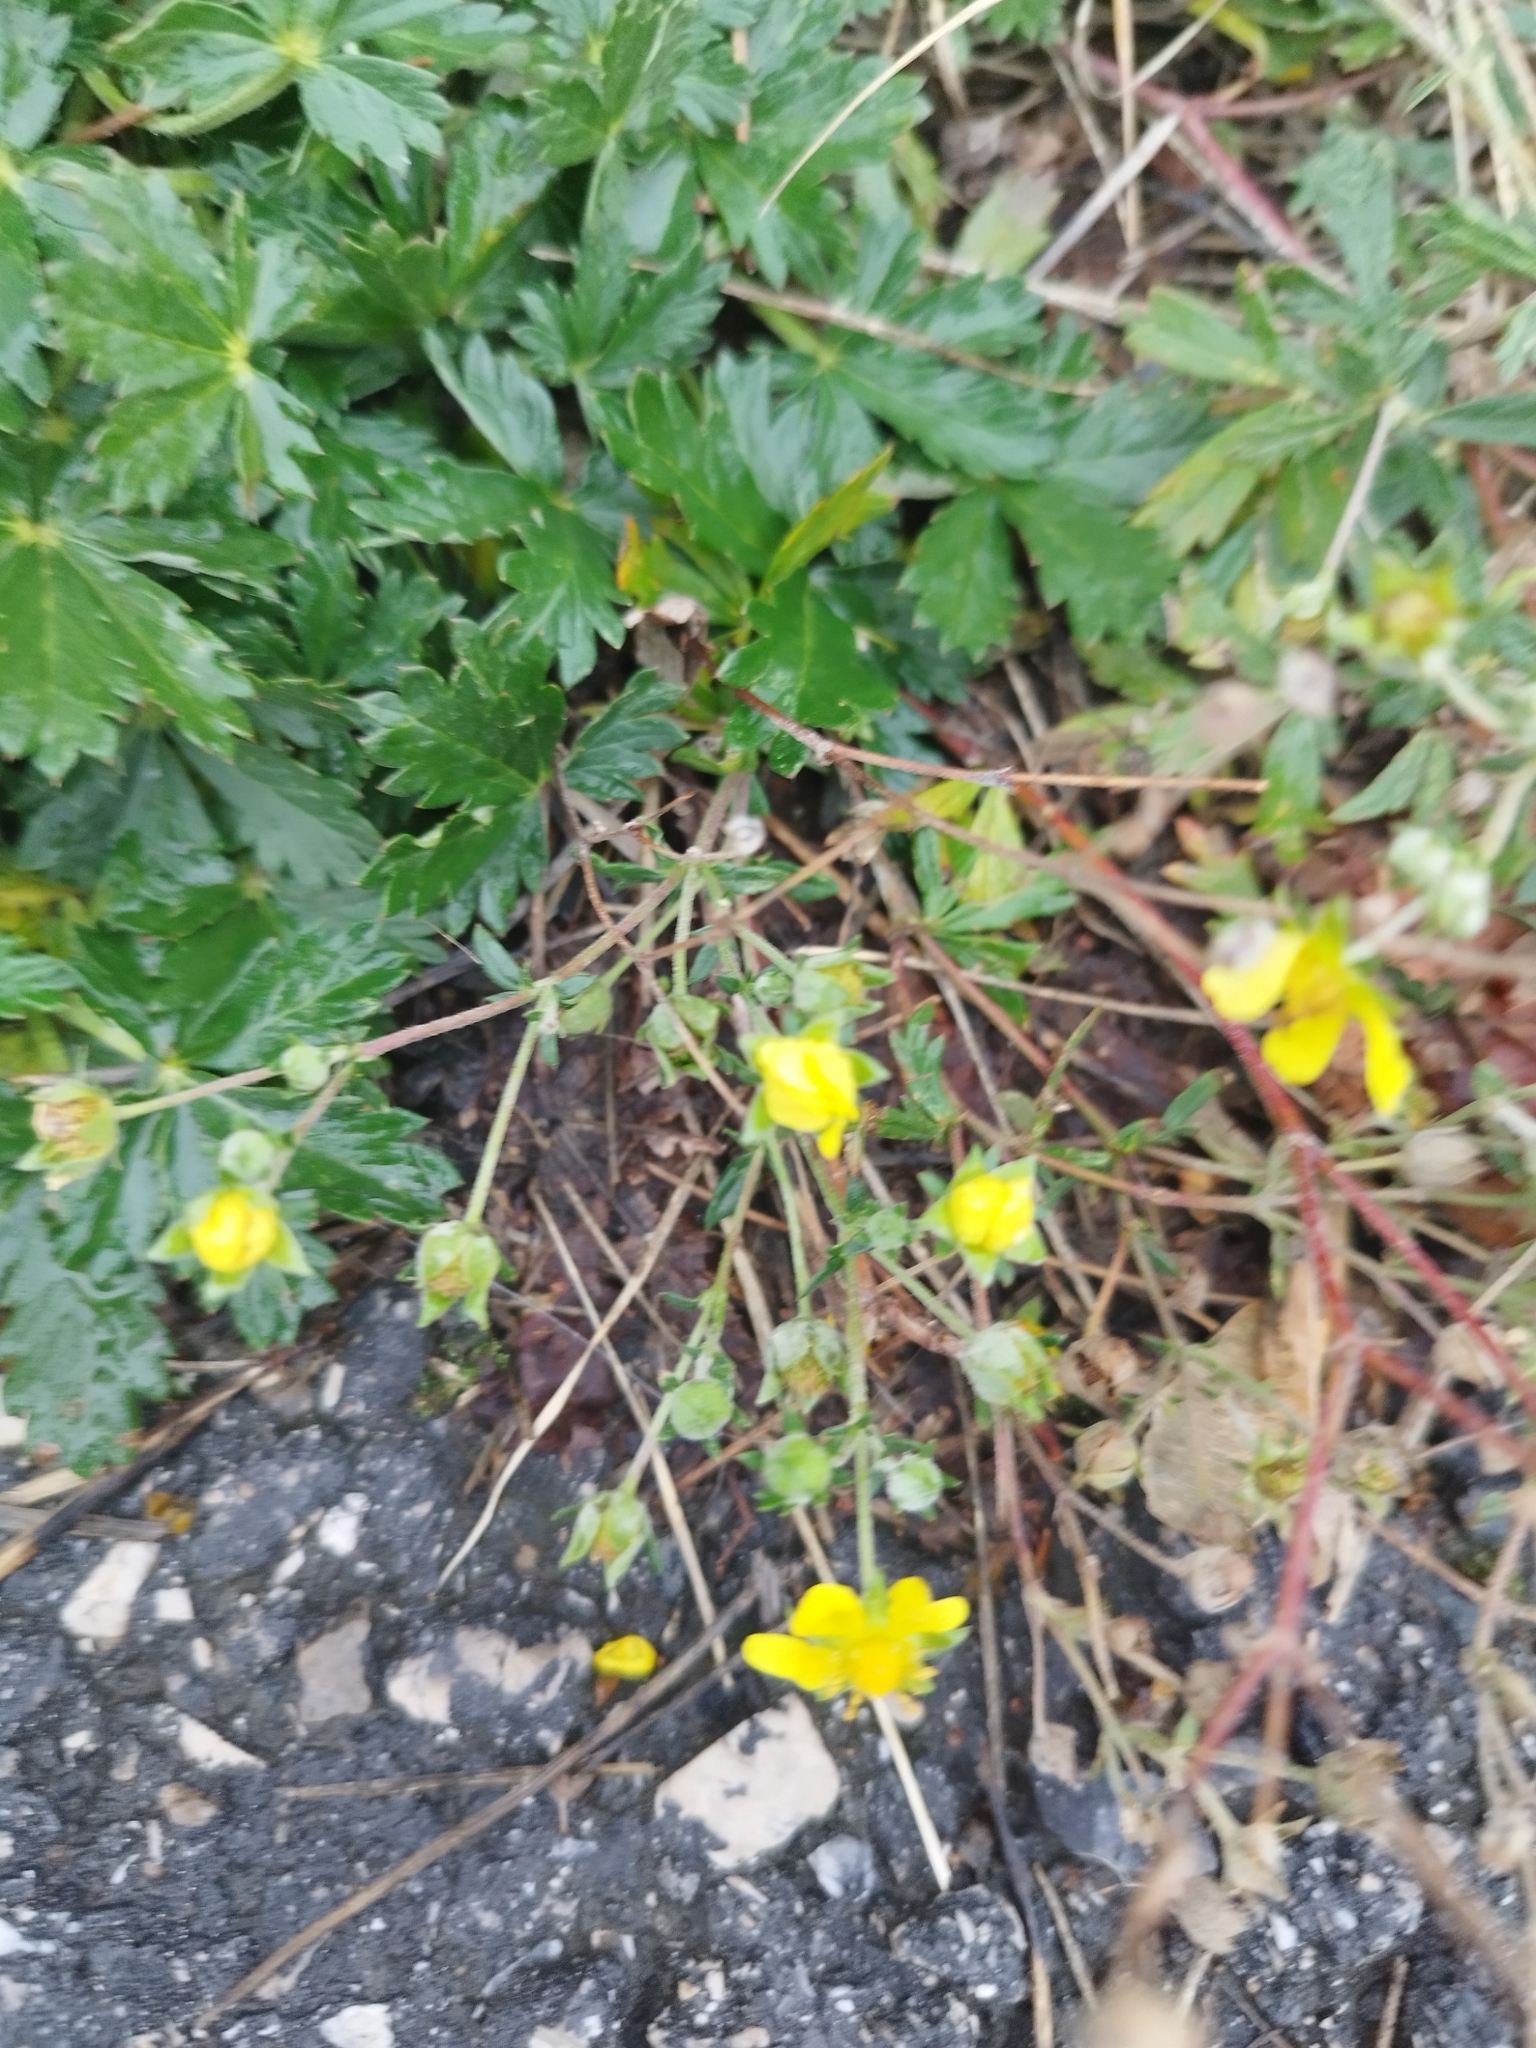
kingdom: Plantae
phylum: Tracheophyta
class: Magnoliopsida
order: Rosales
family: Rosaceae
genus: Potentilla
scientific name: Potentilla argentea
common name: Hoary cinquefoil
